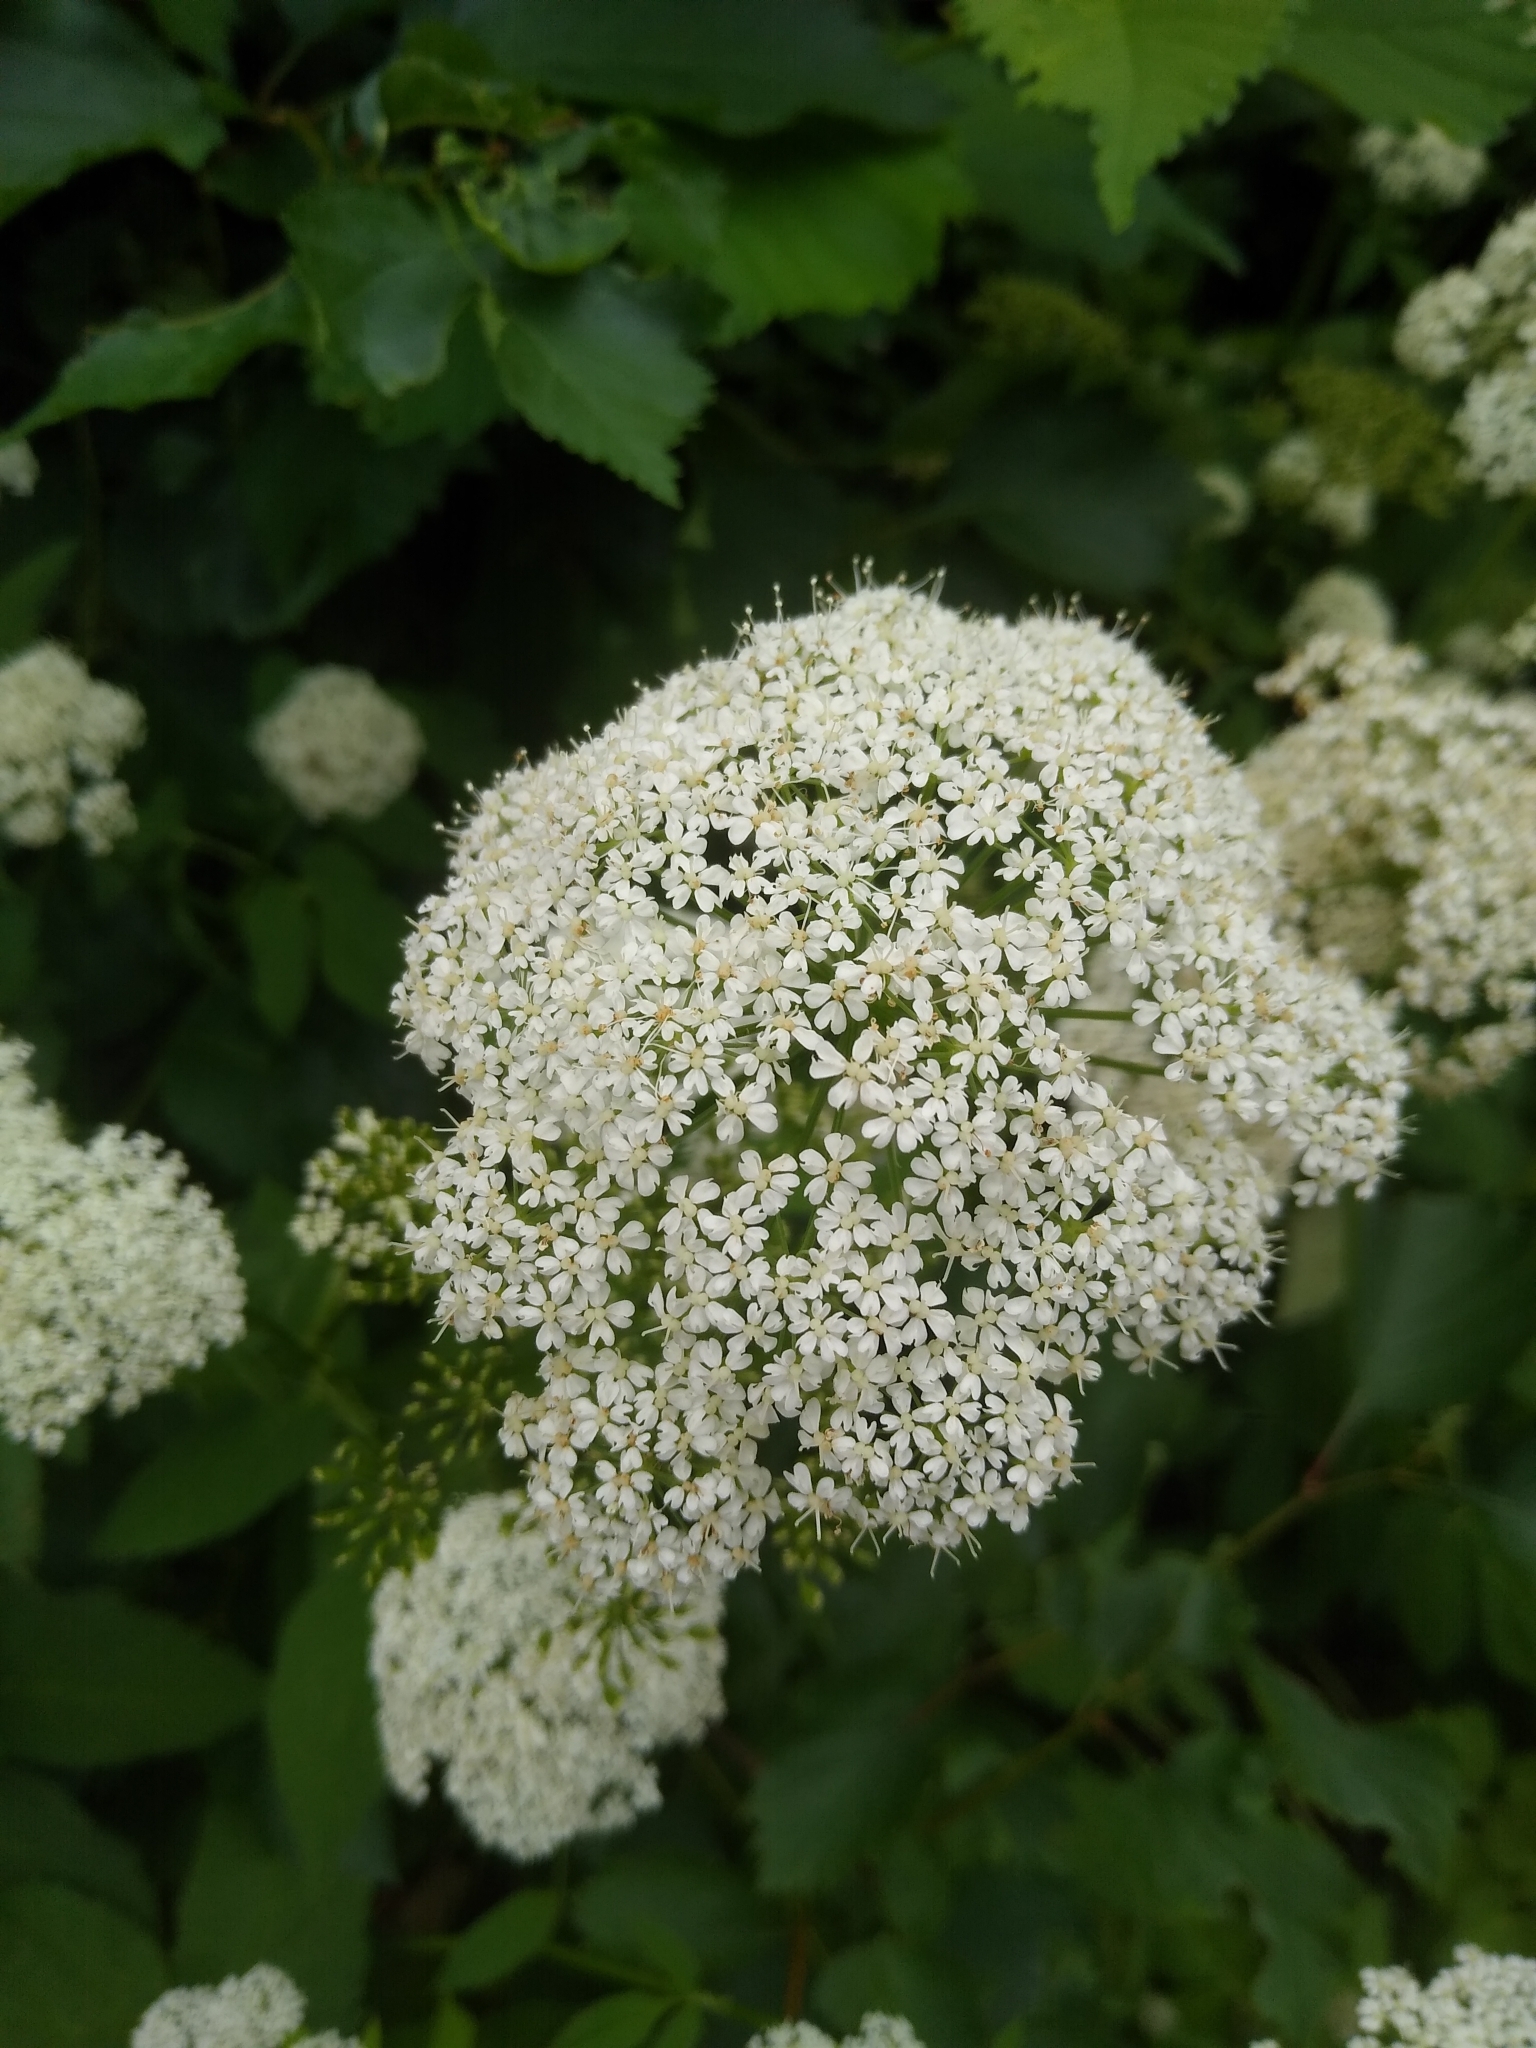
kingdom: Plantae
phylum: Tracheophyta
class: Magnoliopsida
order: Apiales
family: Apiaceae
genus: Aegopodium
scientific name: Aegopodium podagraria
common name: Ground-elder
